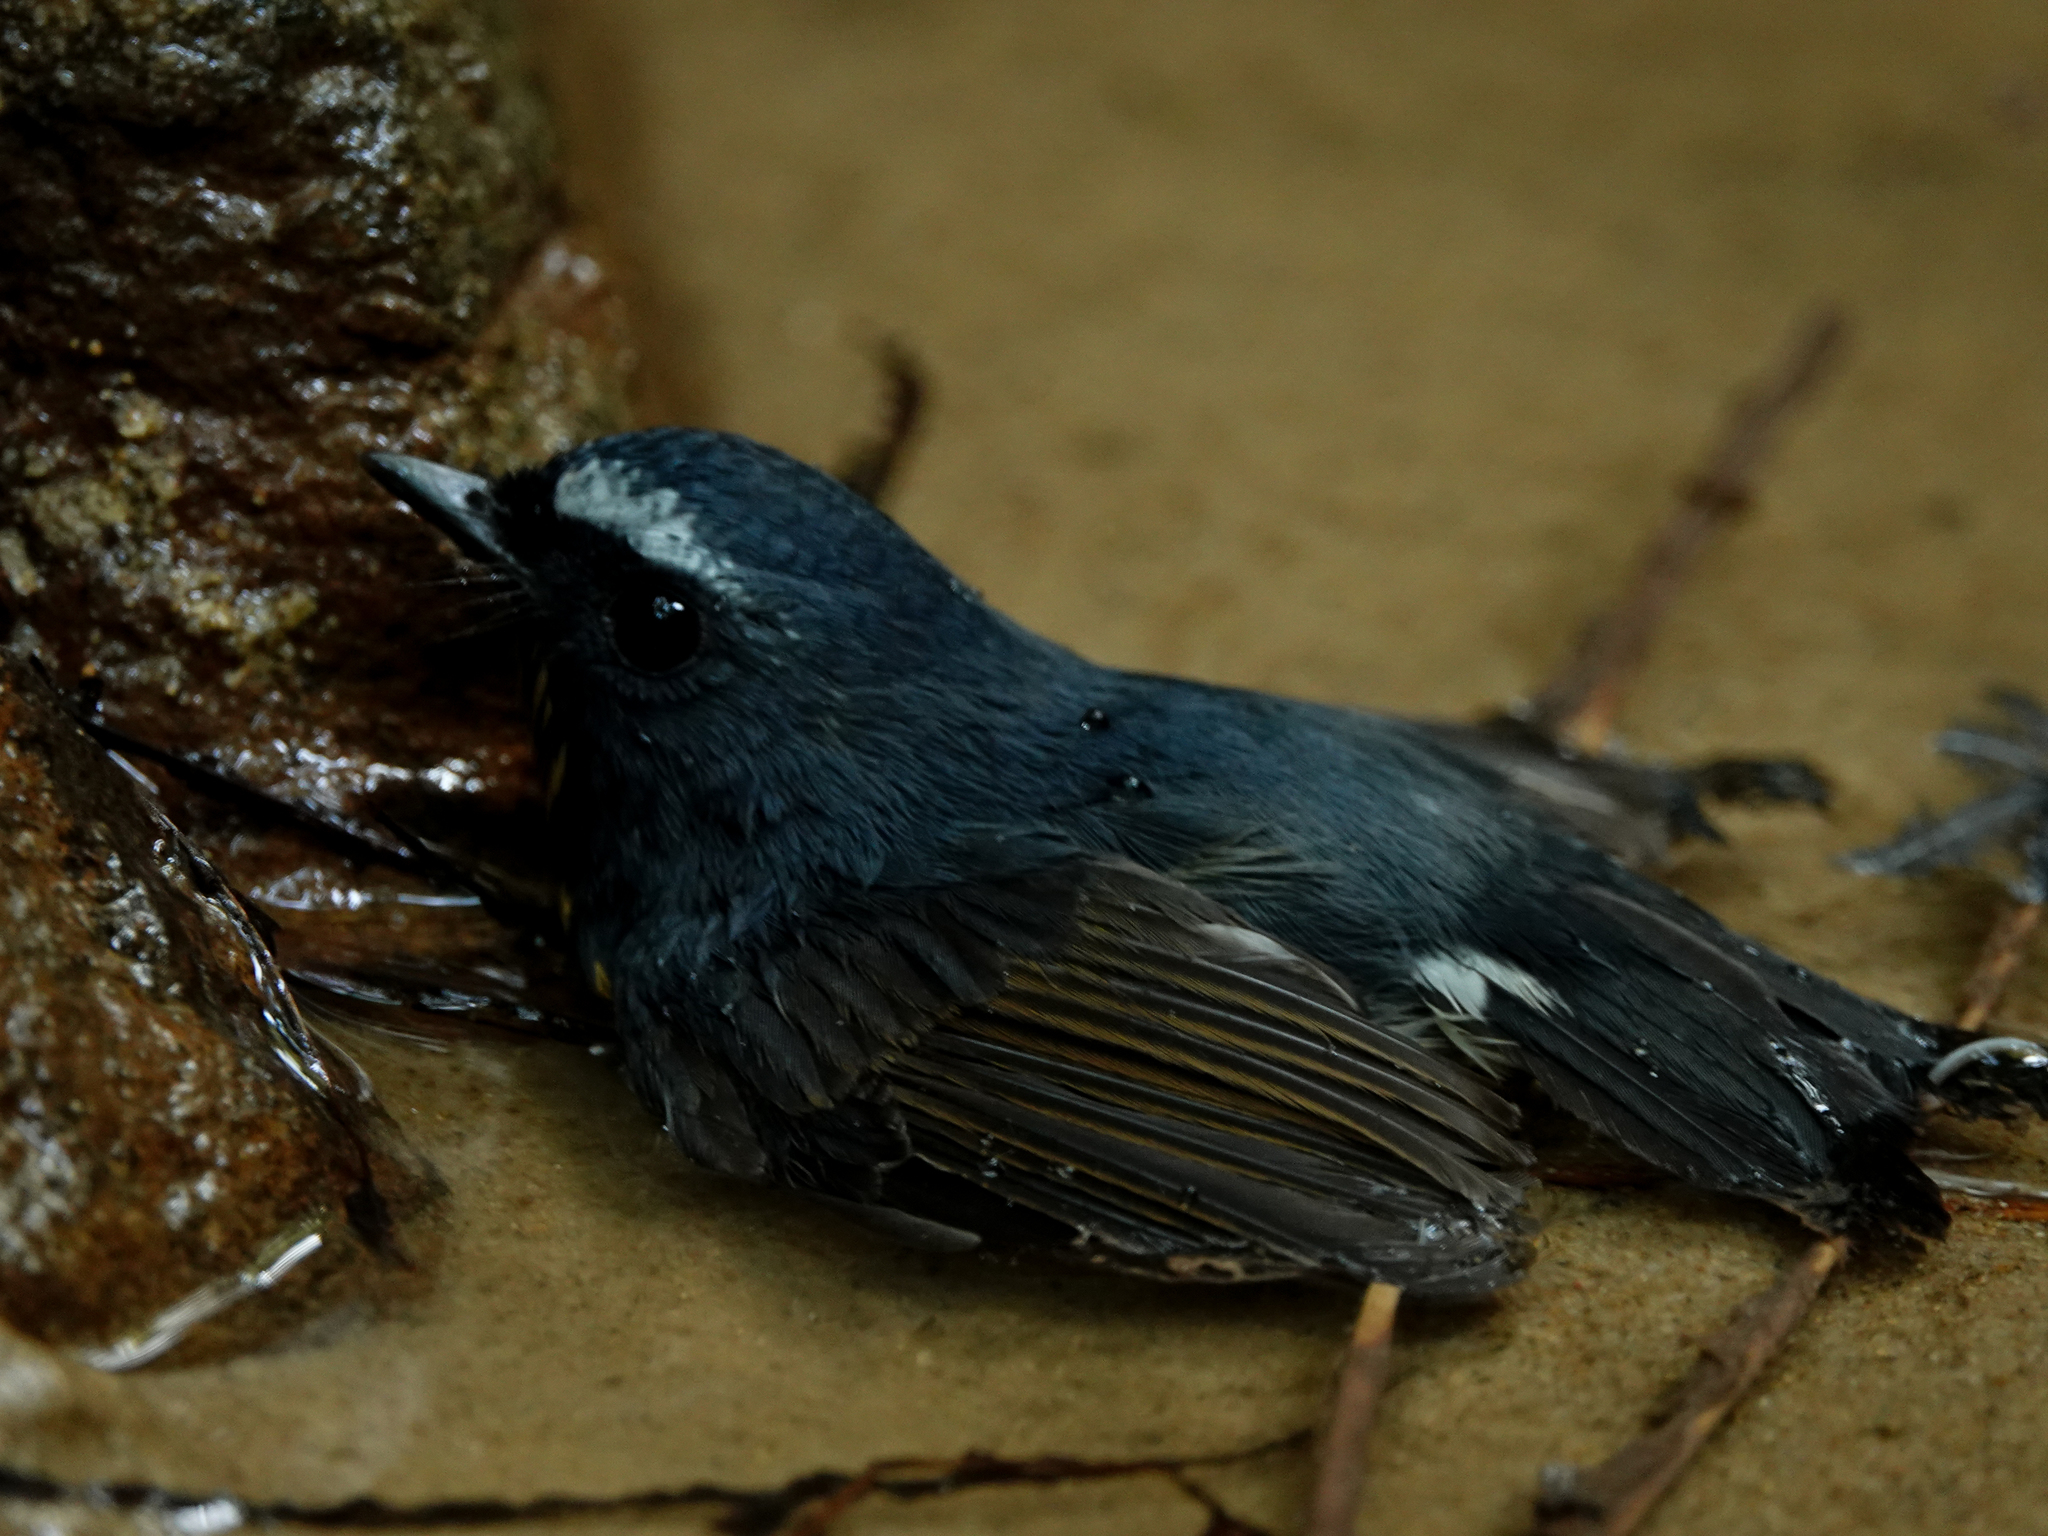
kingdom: Animalia
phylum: Chordata
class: Aves
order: Passeriformes
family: Muscicapidae
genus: Ficedula
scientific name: Ficedula hyperythra
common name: Snowy-browed flycatcher
